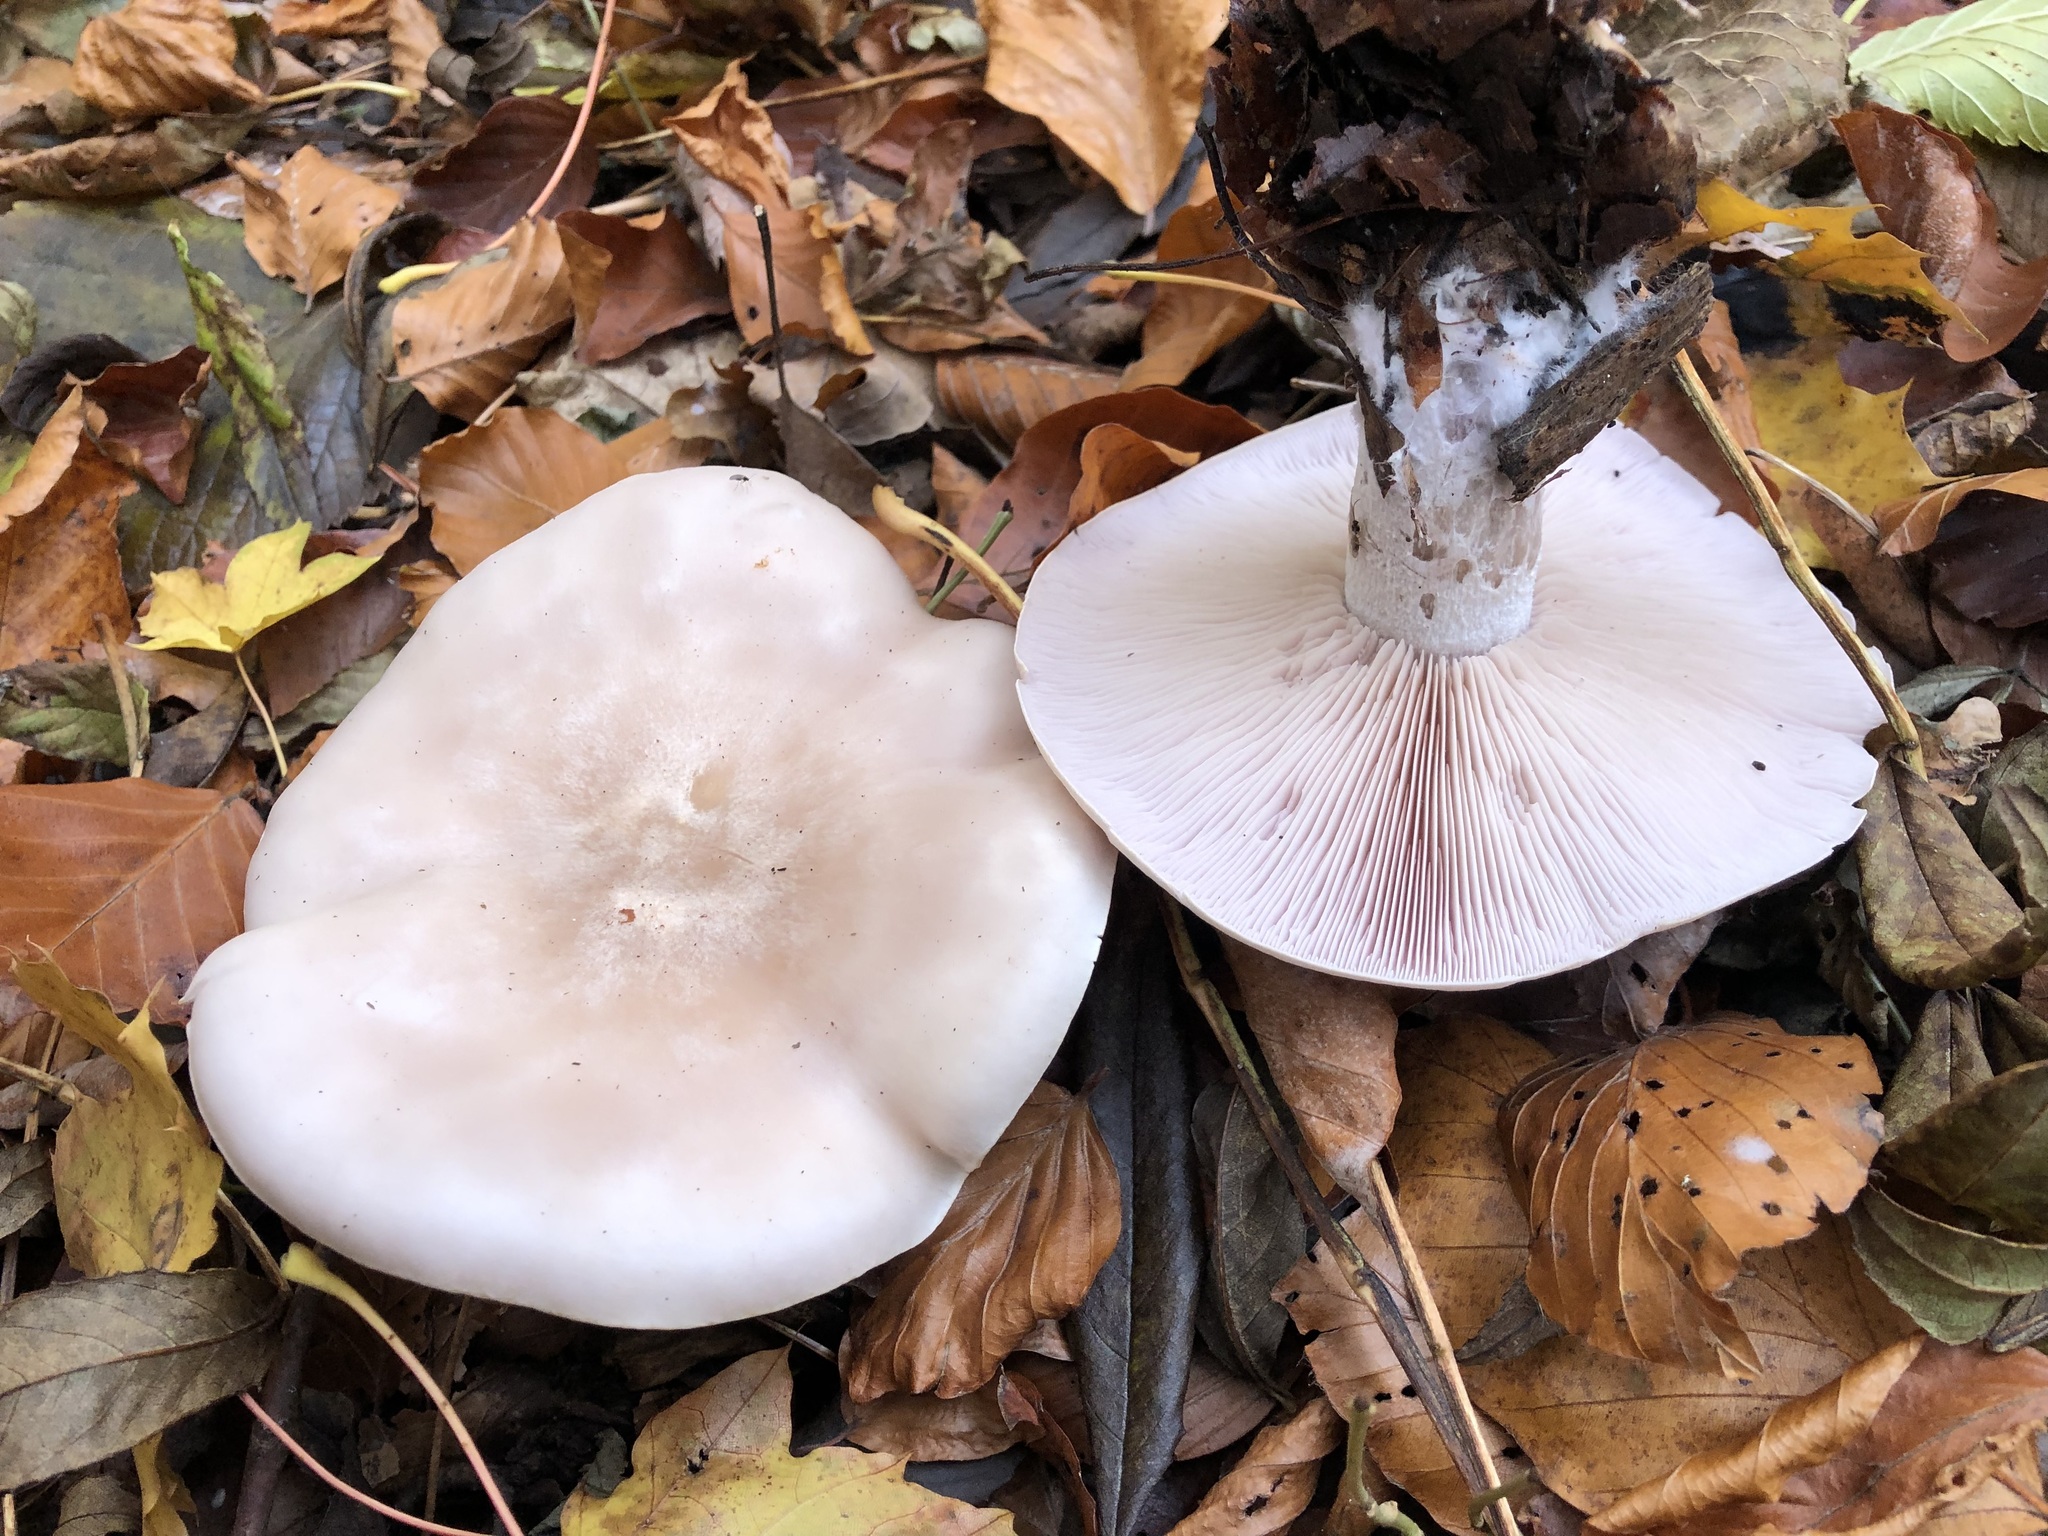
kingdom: Fungi
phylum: Basidiomycota
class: Agaricomycetes
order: Agaricales
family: Tricholomataceae
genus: Collybia
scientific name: Collybia
